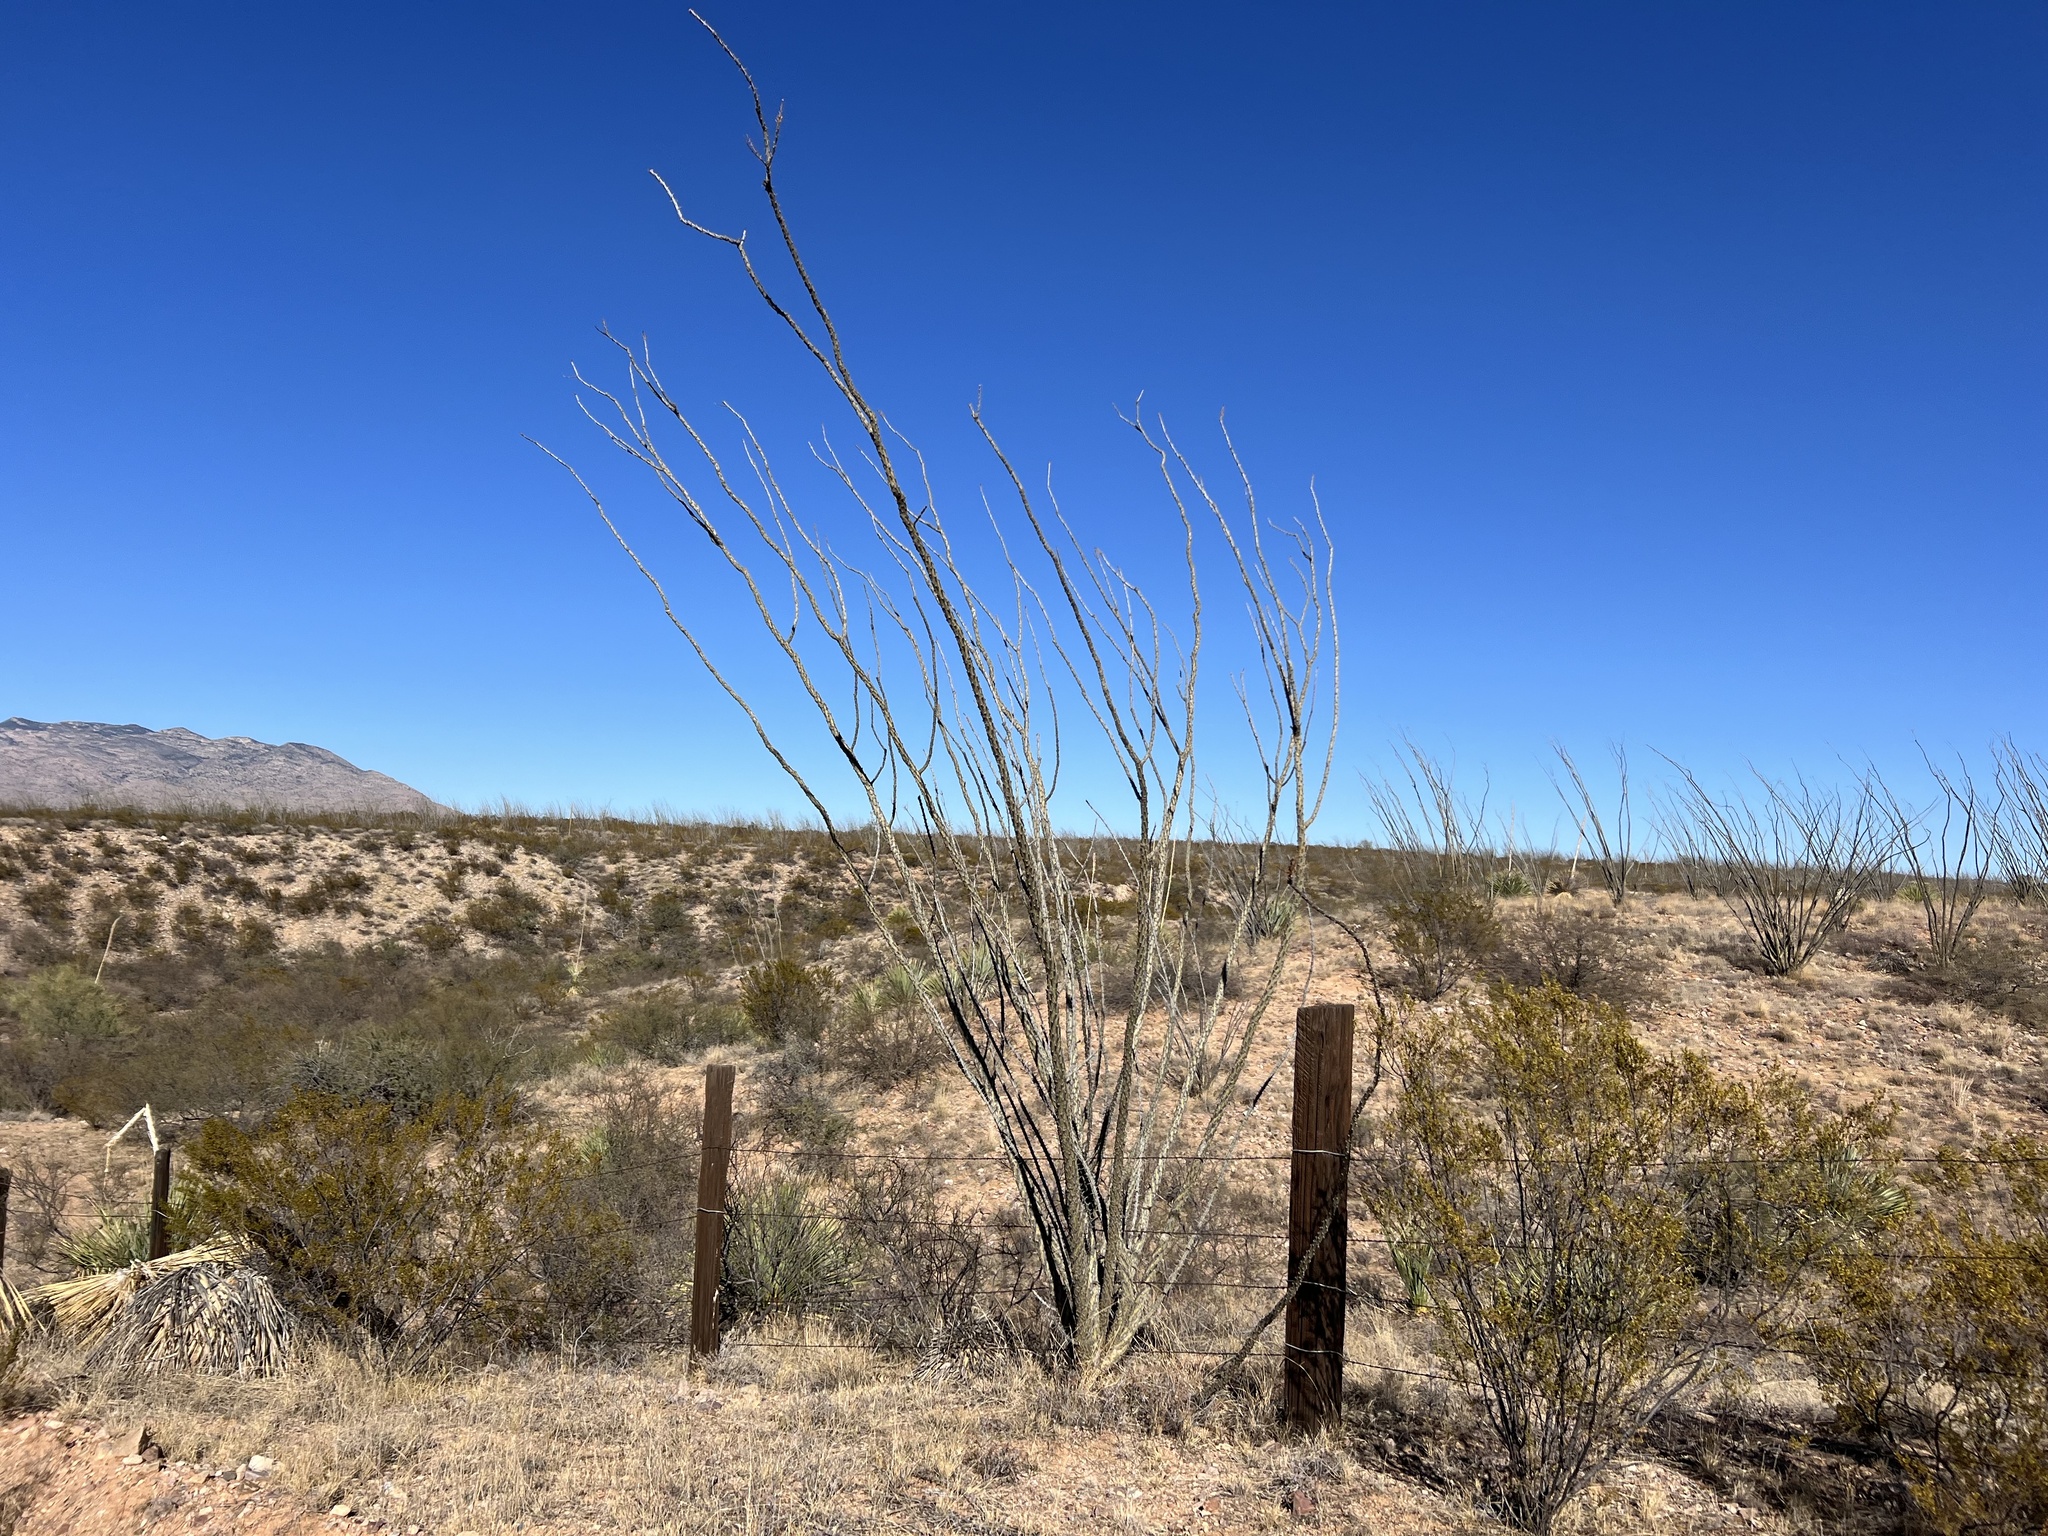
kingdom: Plantae
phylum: Tracheophyta
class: Magnoliopsida
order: Ericales
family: Fouquieriaceae
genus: Fouquieria
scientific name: Fouquieria splendens
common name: Vine-cactus
